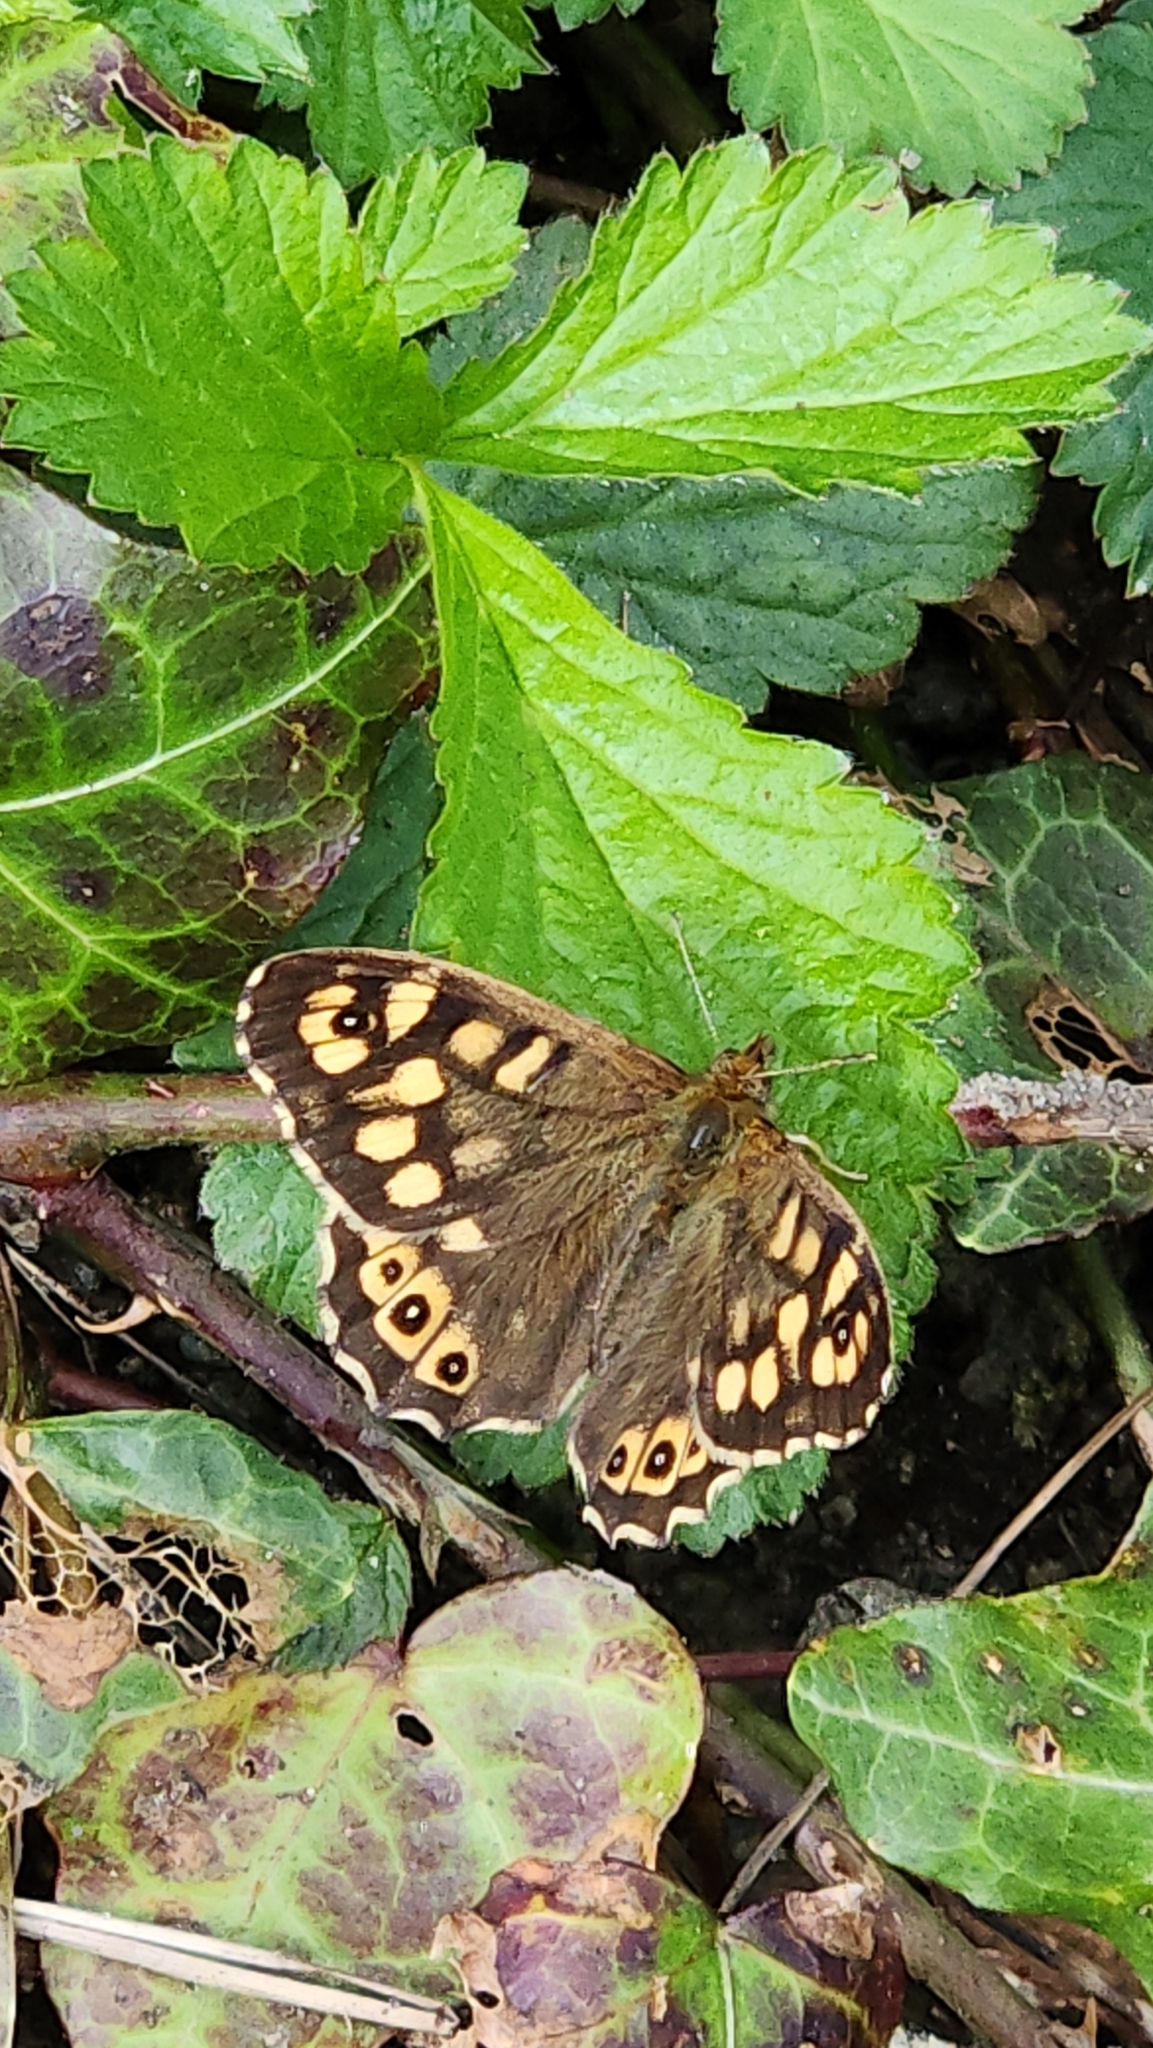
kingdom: Animalia
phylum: Arthropoda
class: Insecta
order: Lepidoptera
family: Nymphalidae
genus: Pararge
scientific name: Pararge aegeria
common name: Speckled wood
